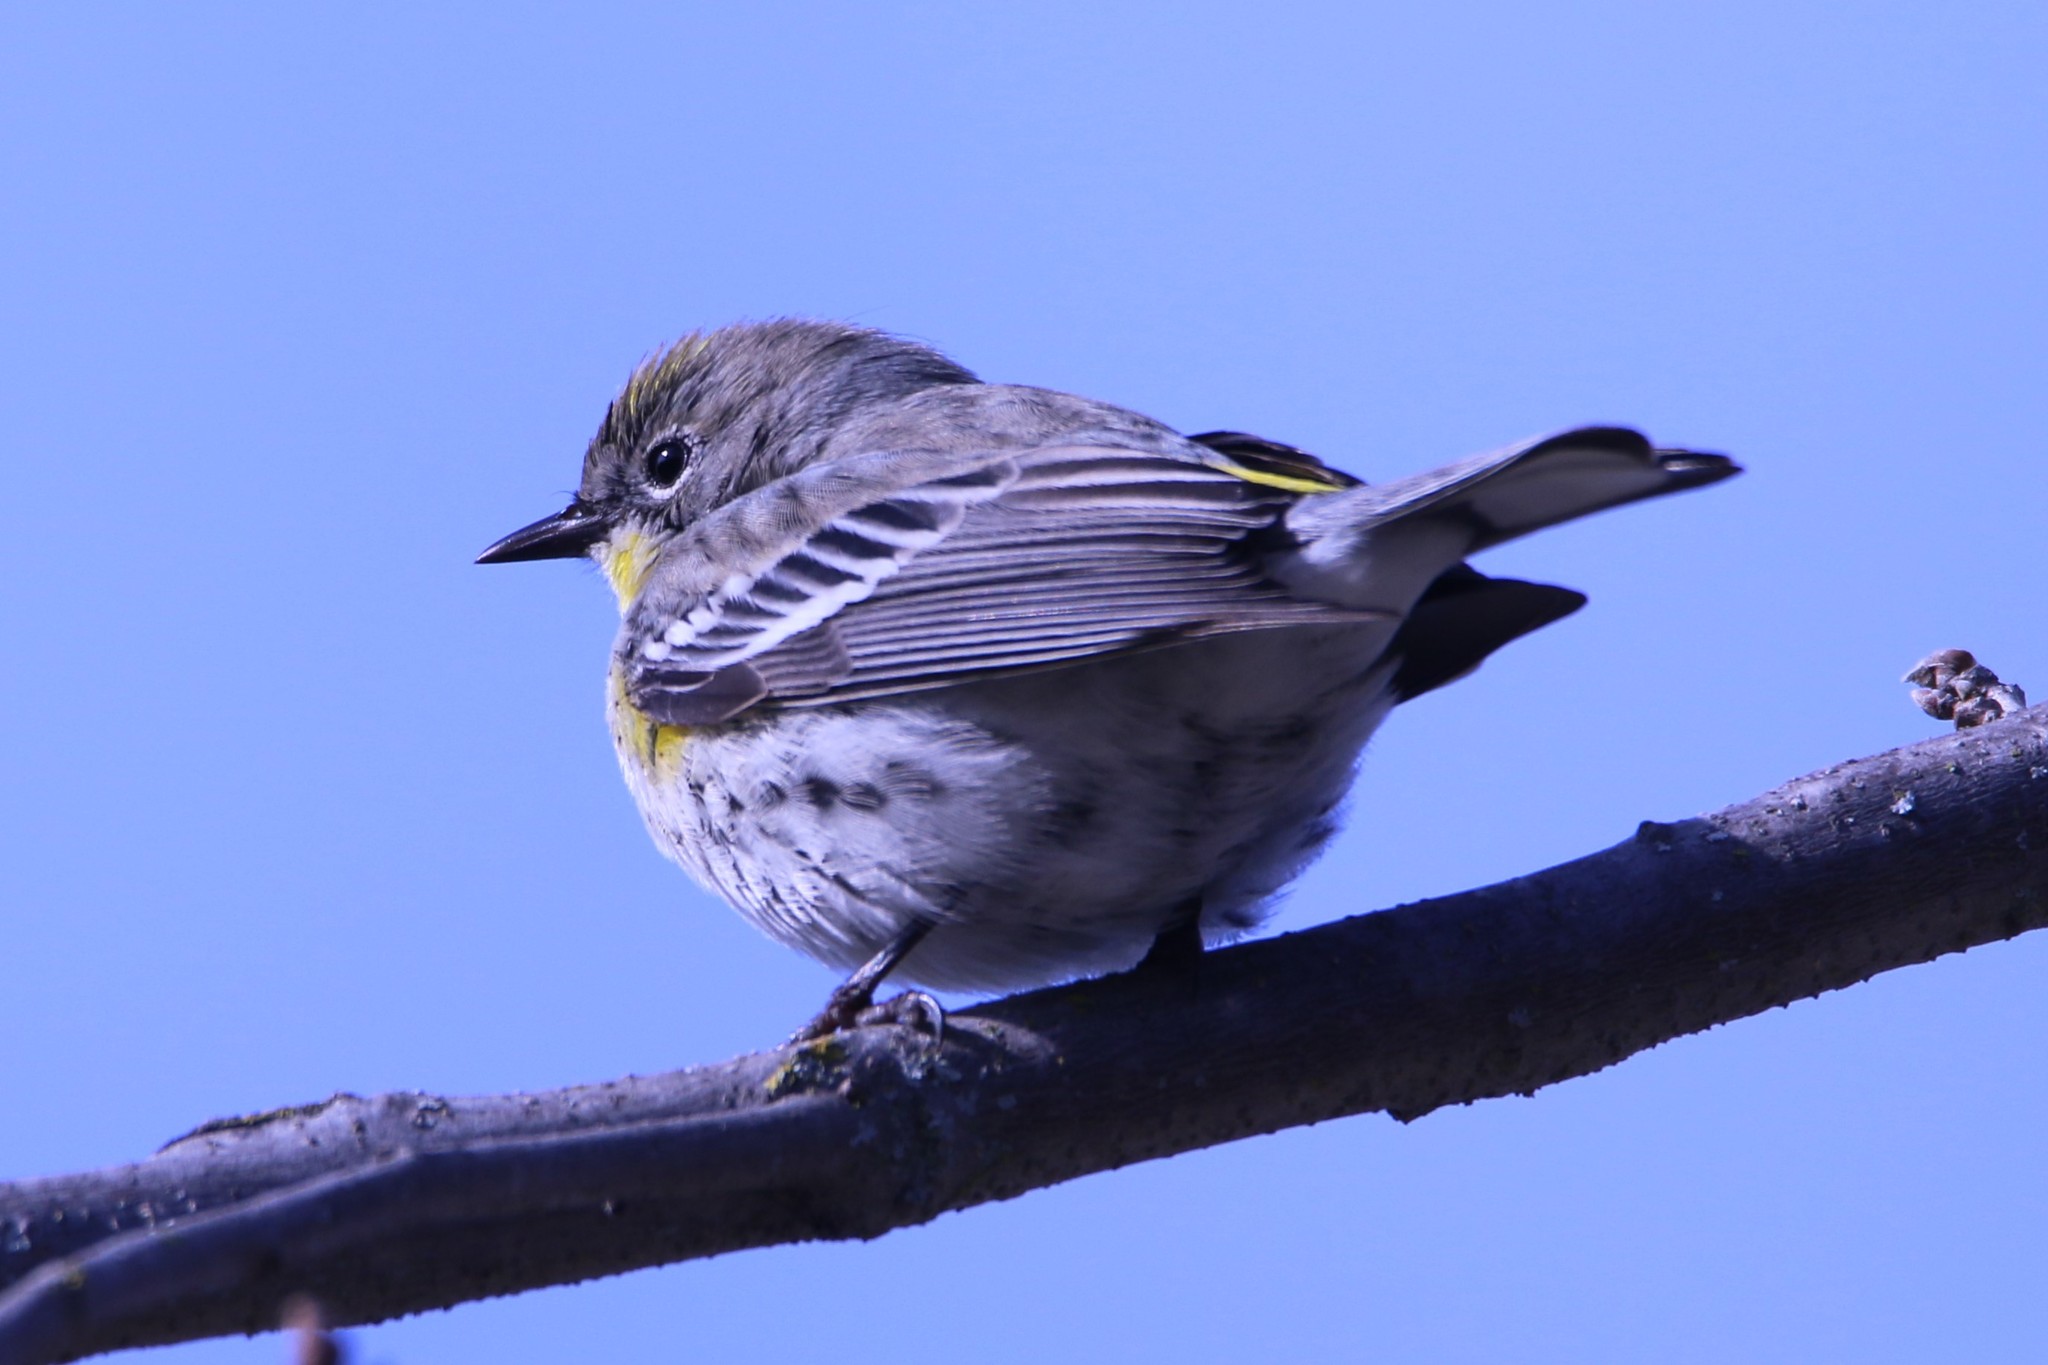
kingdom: Animalia
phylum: Chordata
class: Aves
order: Passeriformes
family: Parulidae
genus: Setophaga
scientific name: Setophaga coronata
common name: Myrtle warbler
